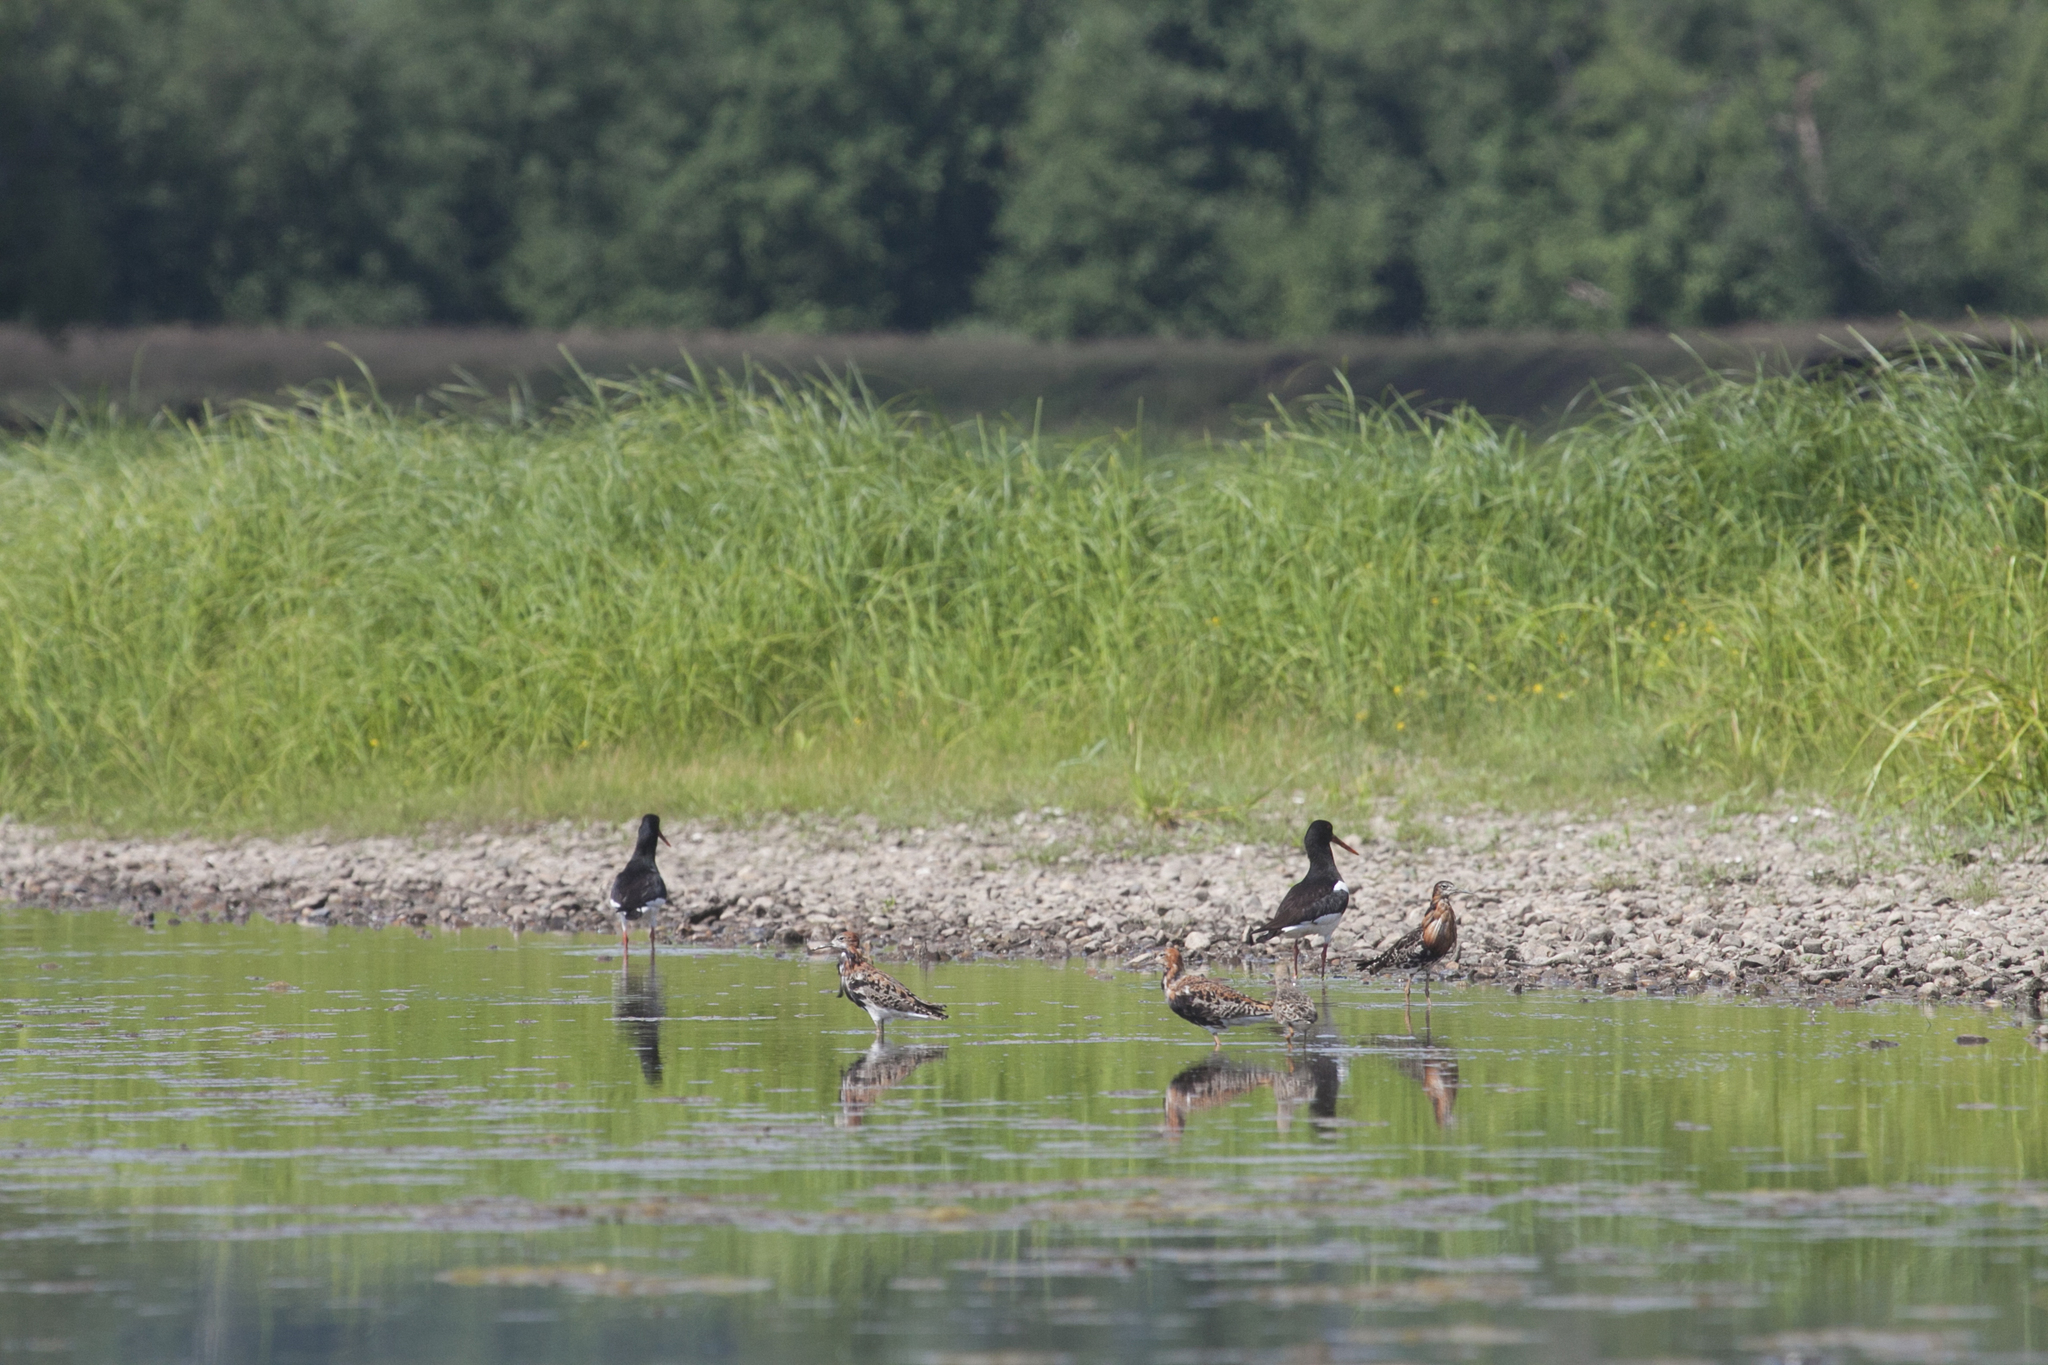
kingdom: Animalia
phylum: Chordata
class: Aves
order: Charadriiformes
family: Scolopacidae
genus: Calidris
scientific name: Calidris pugnax
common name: Ruff
